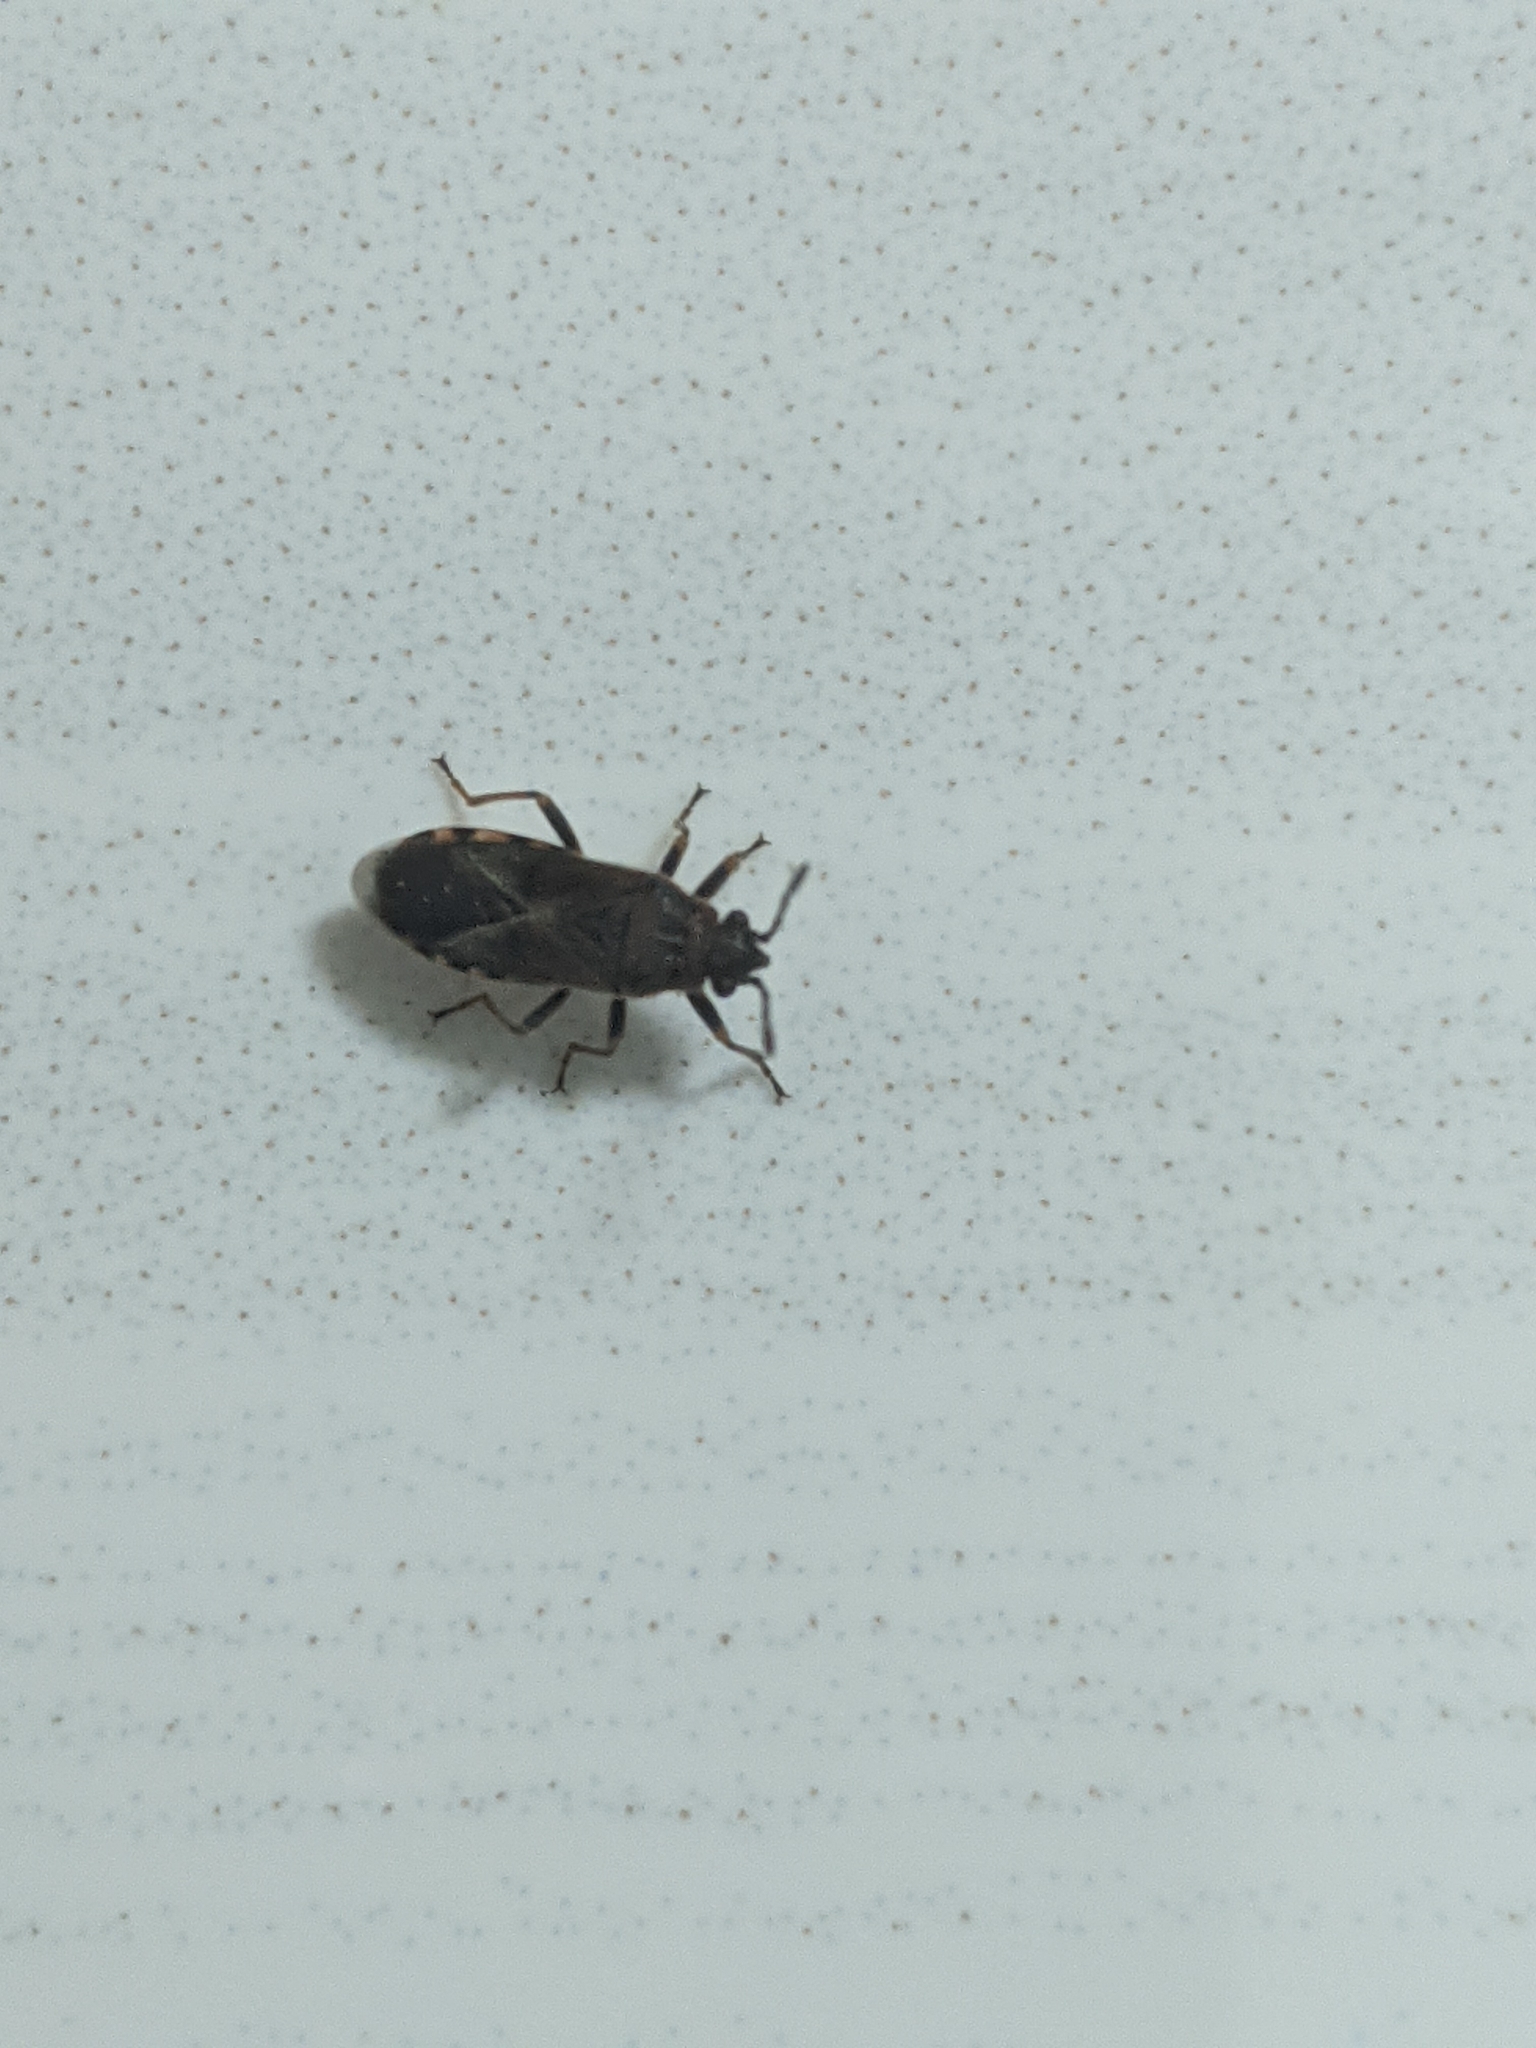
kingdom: Animalia
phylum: Arthropoda
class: Insecta
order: Hemiptera
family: Lygaeidae
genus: Arocatus
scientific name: Arocatus melanocephalus
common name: Lygaeid bug
